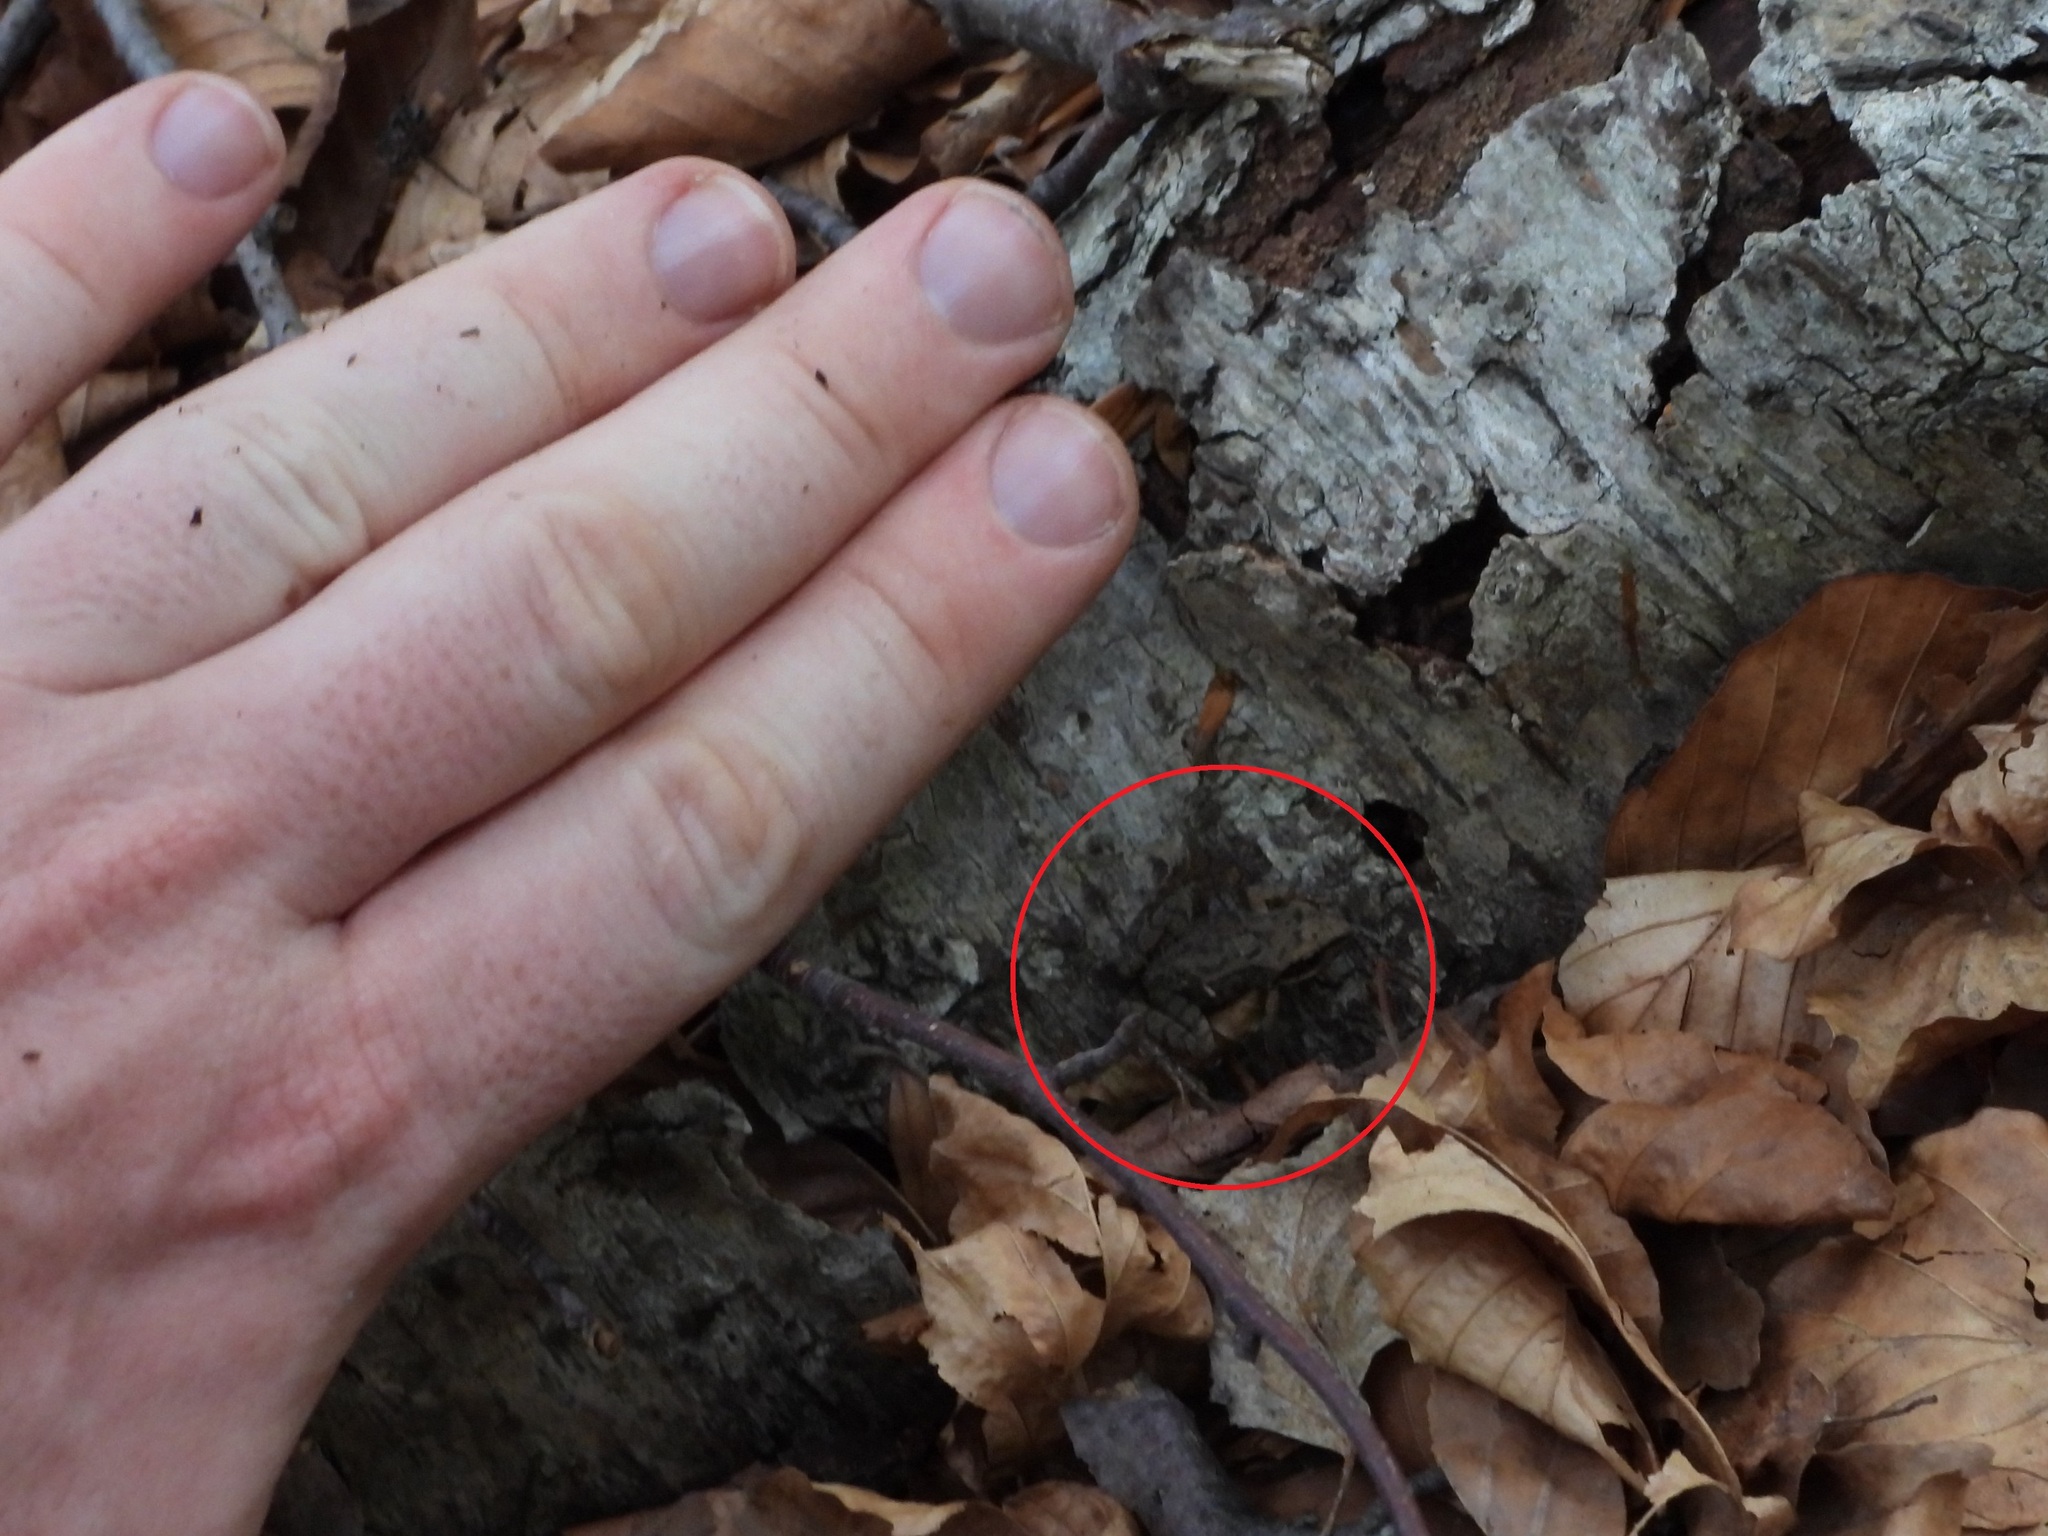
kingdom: Animalia
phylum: Chordata
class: Amphibia
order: Anura
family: Ranidae
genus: Rana
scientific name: Rana temporaria
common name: Common frog
